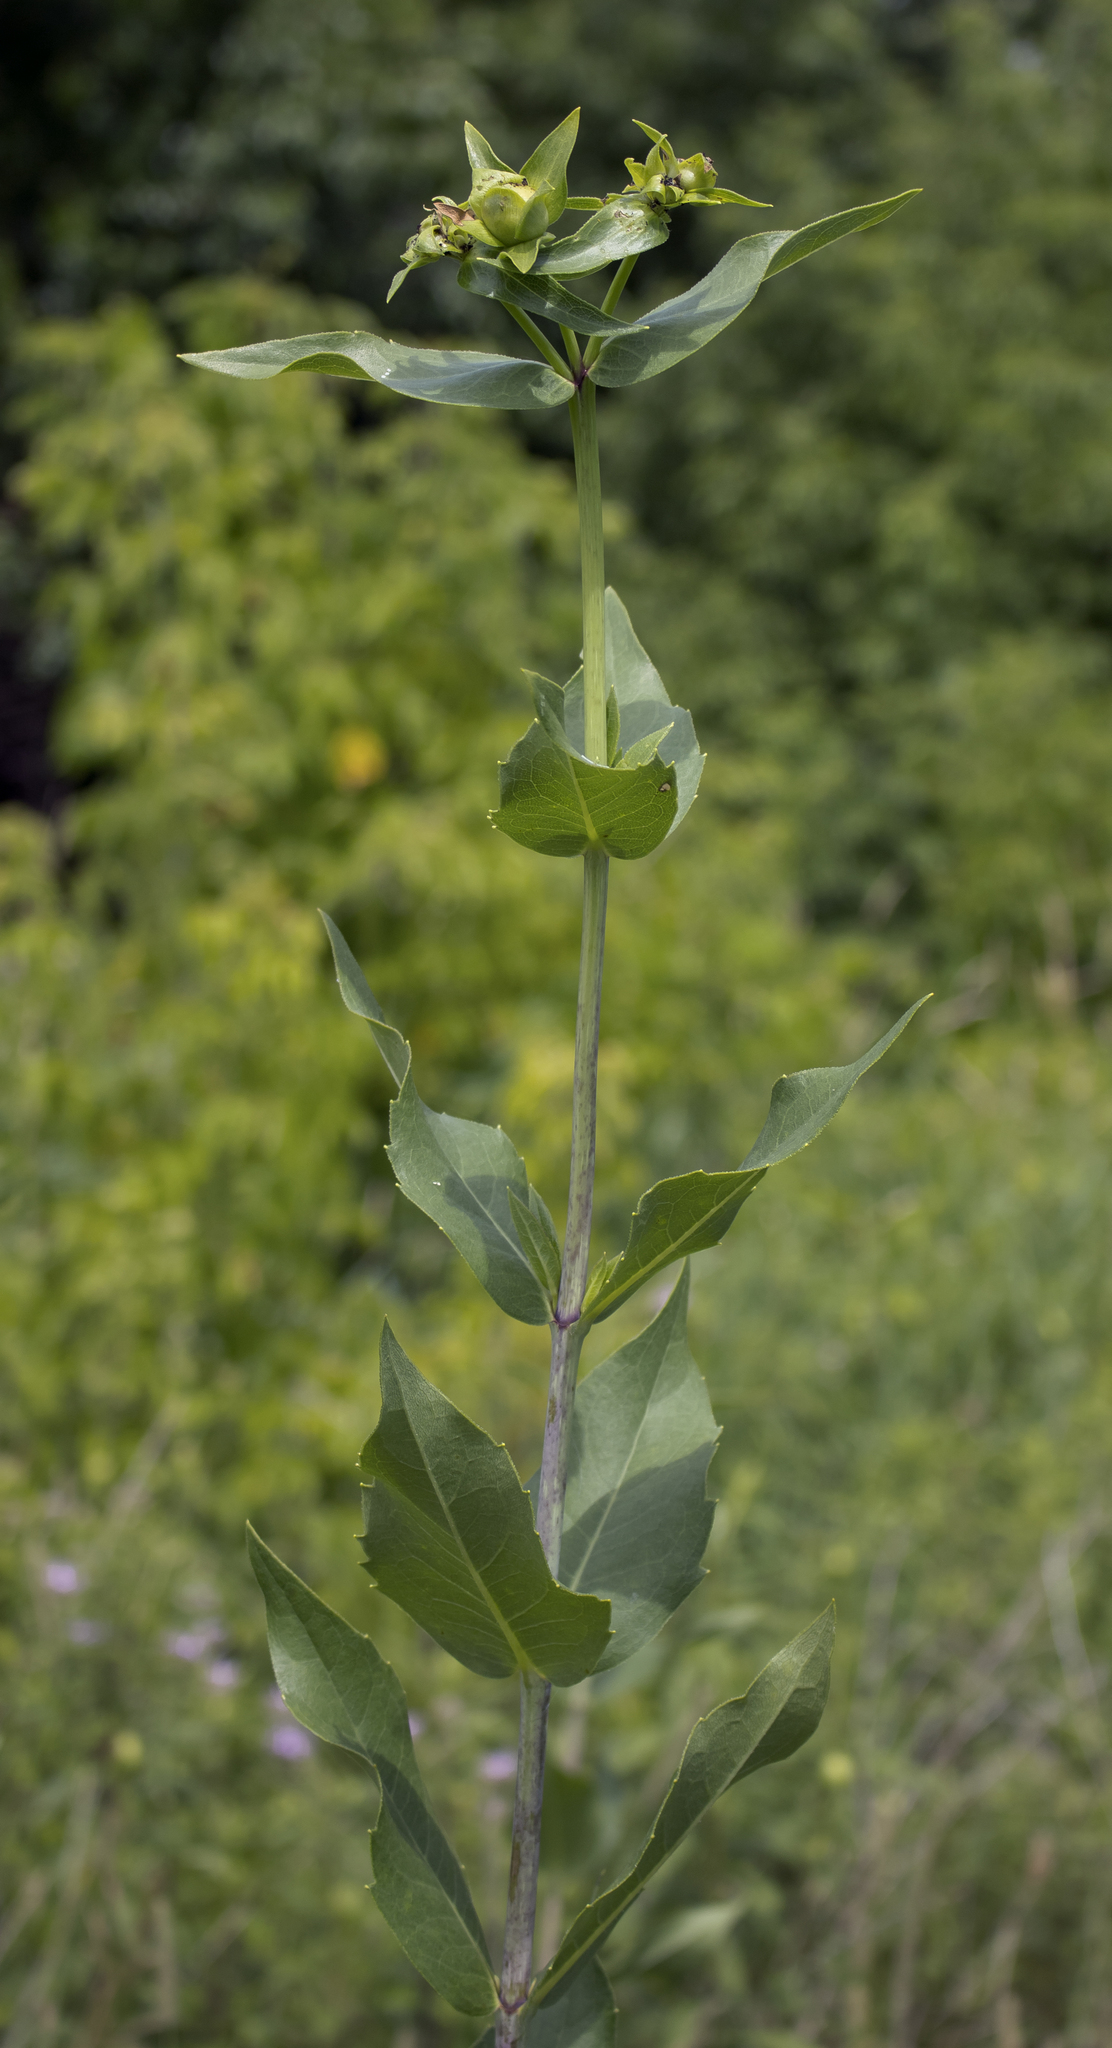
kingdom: Plantae
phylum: Tracheophyta
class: Magnoliopsida
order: Asterales
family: Asteraceae
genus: Silphium
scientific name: Silphium integrifolium
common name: Whole-leaf rosinweed
